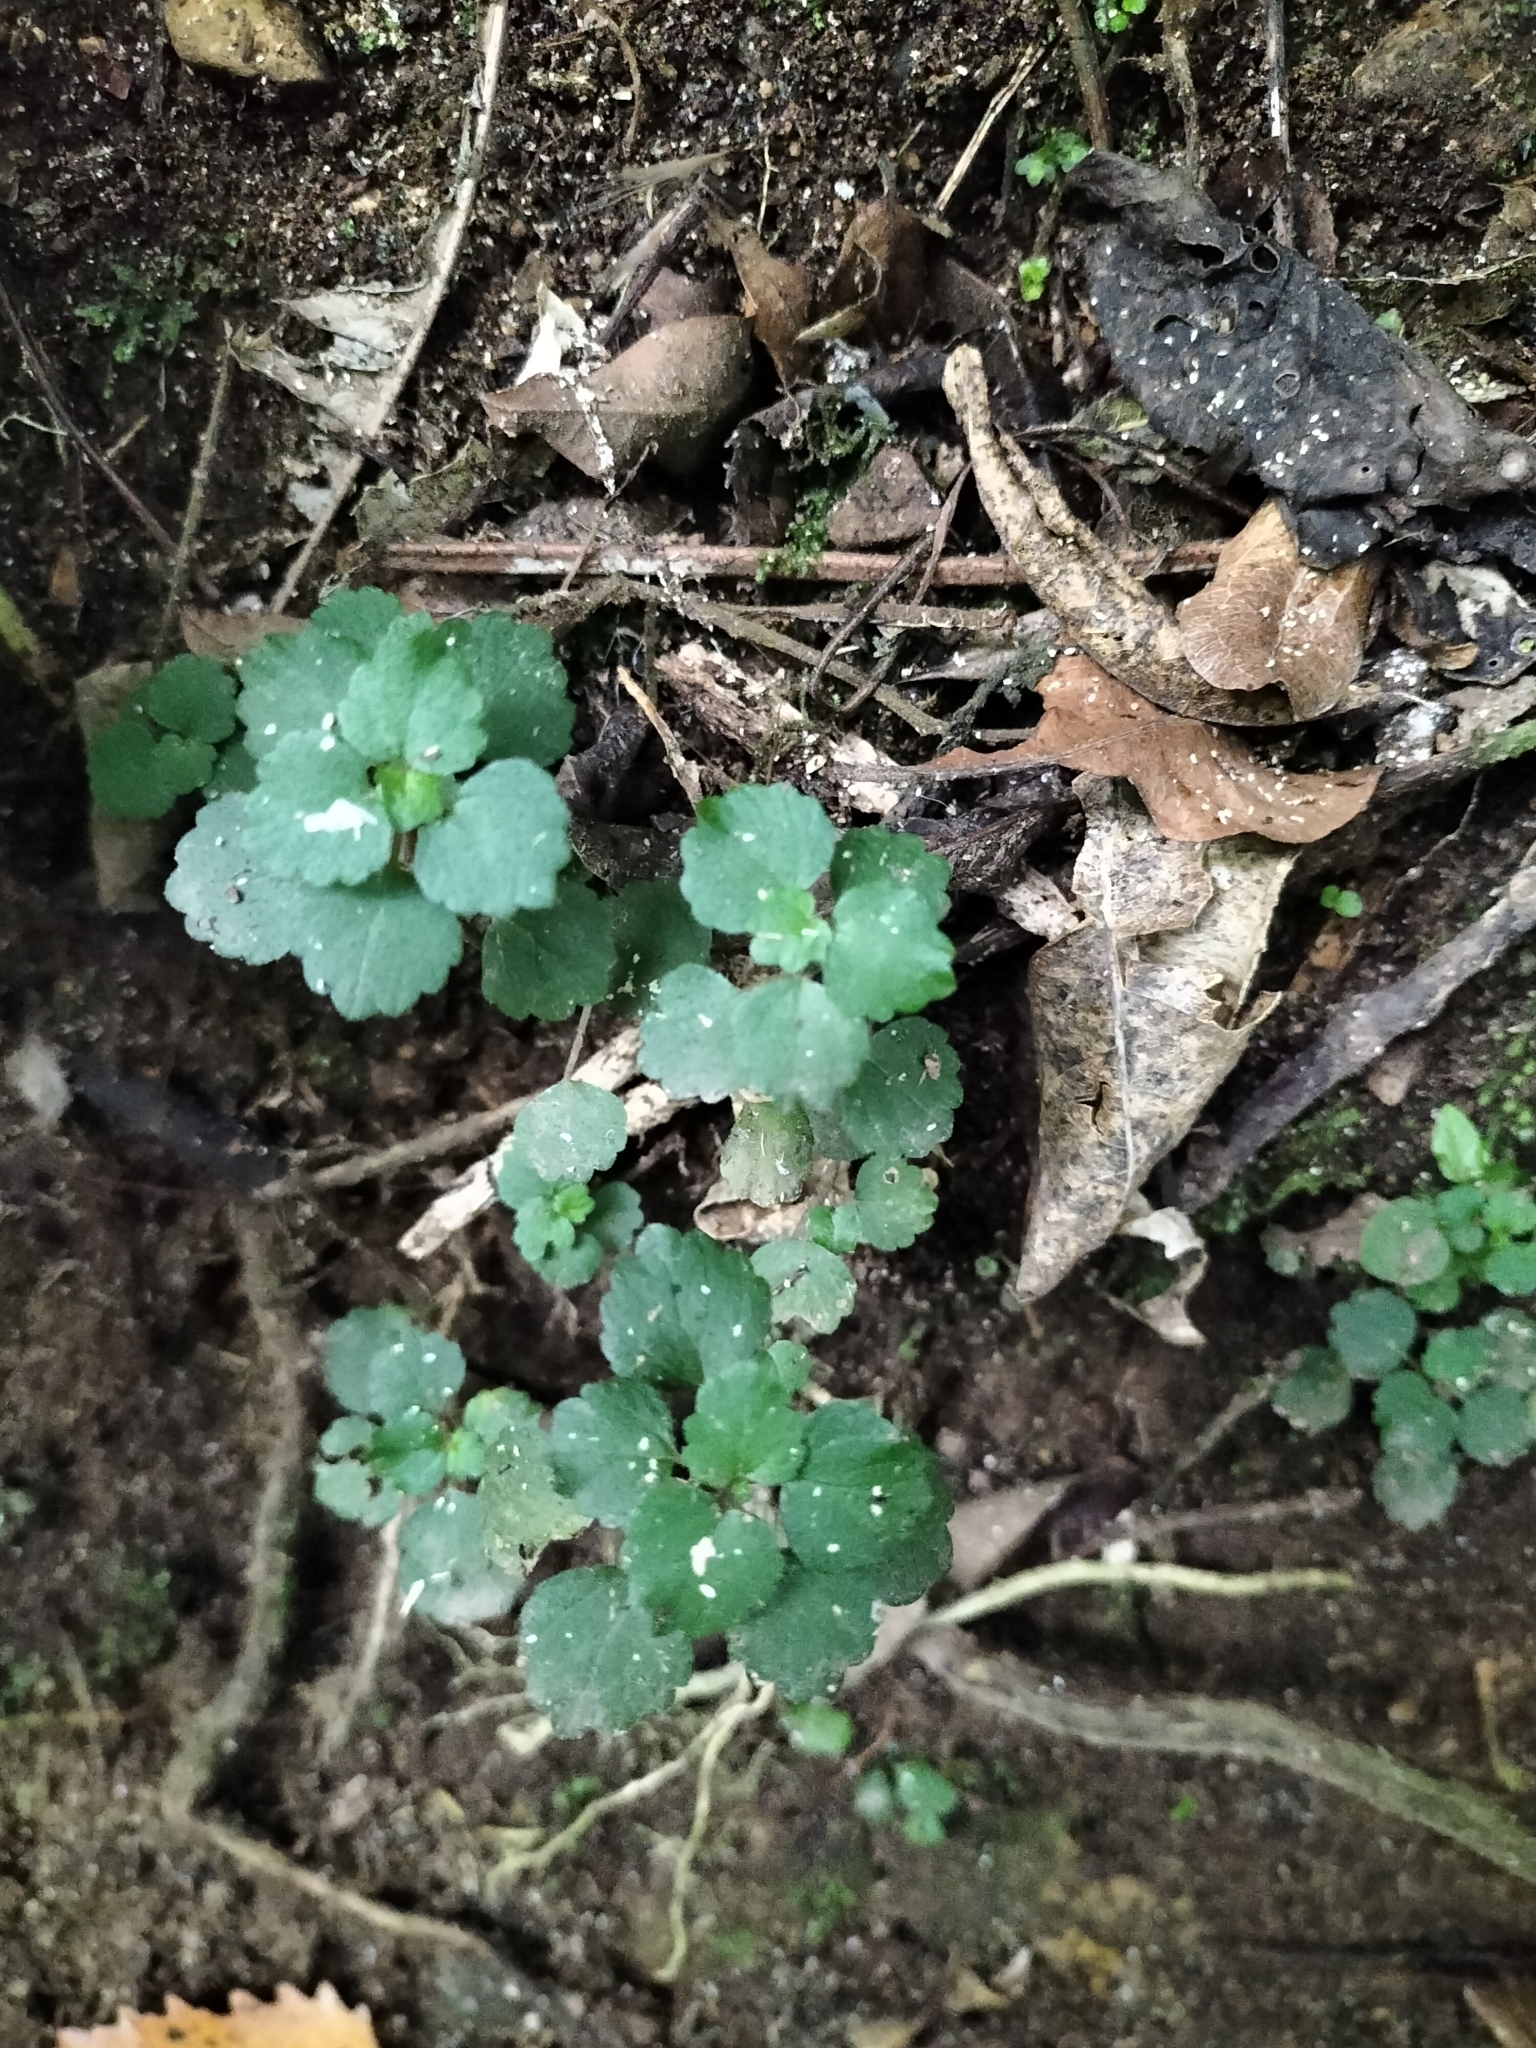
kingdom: Plantae
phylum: Tracheophyta
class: Magnoliopsida
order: Rosales
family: Urticaceae
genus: Australina
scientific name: Australina pusilla
